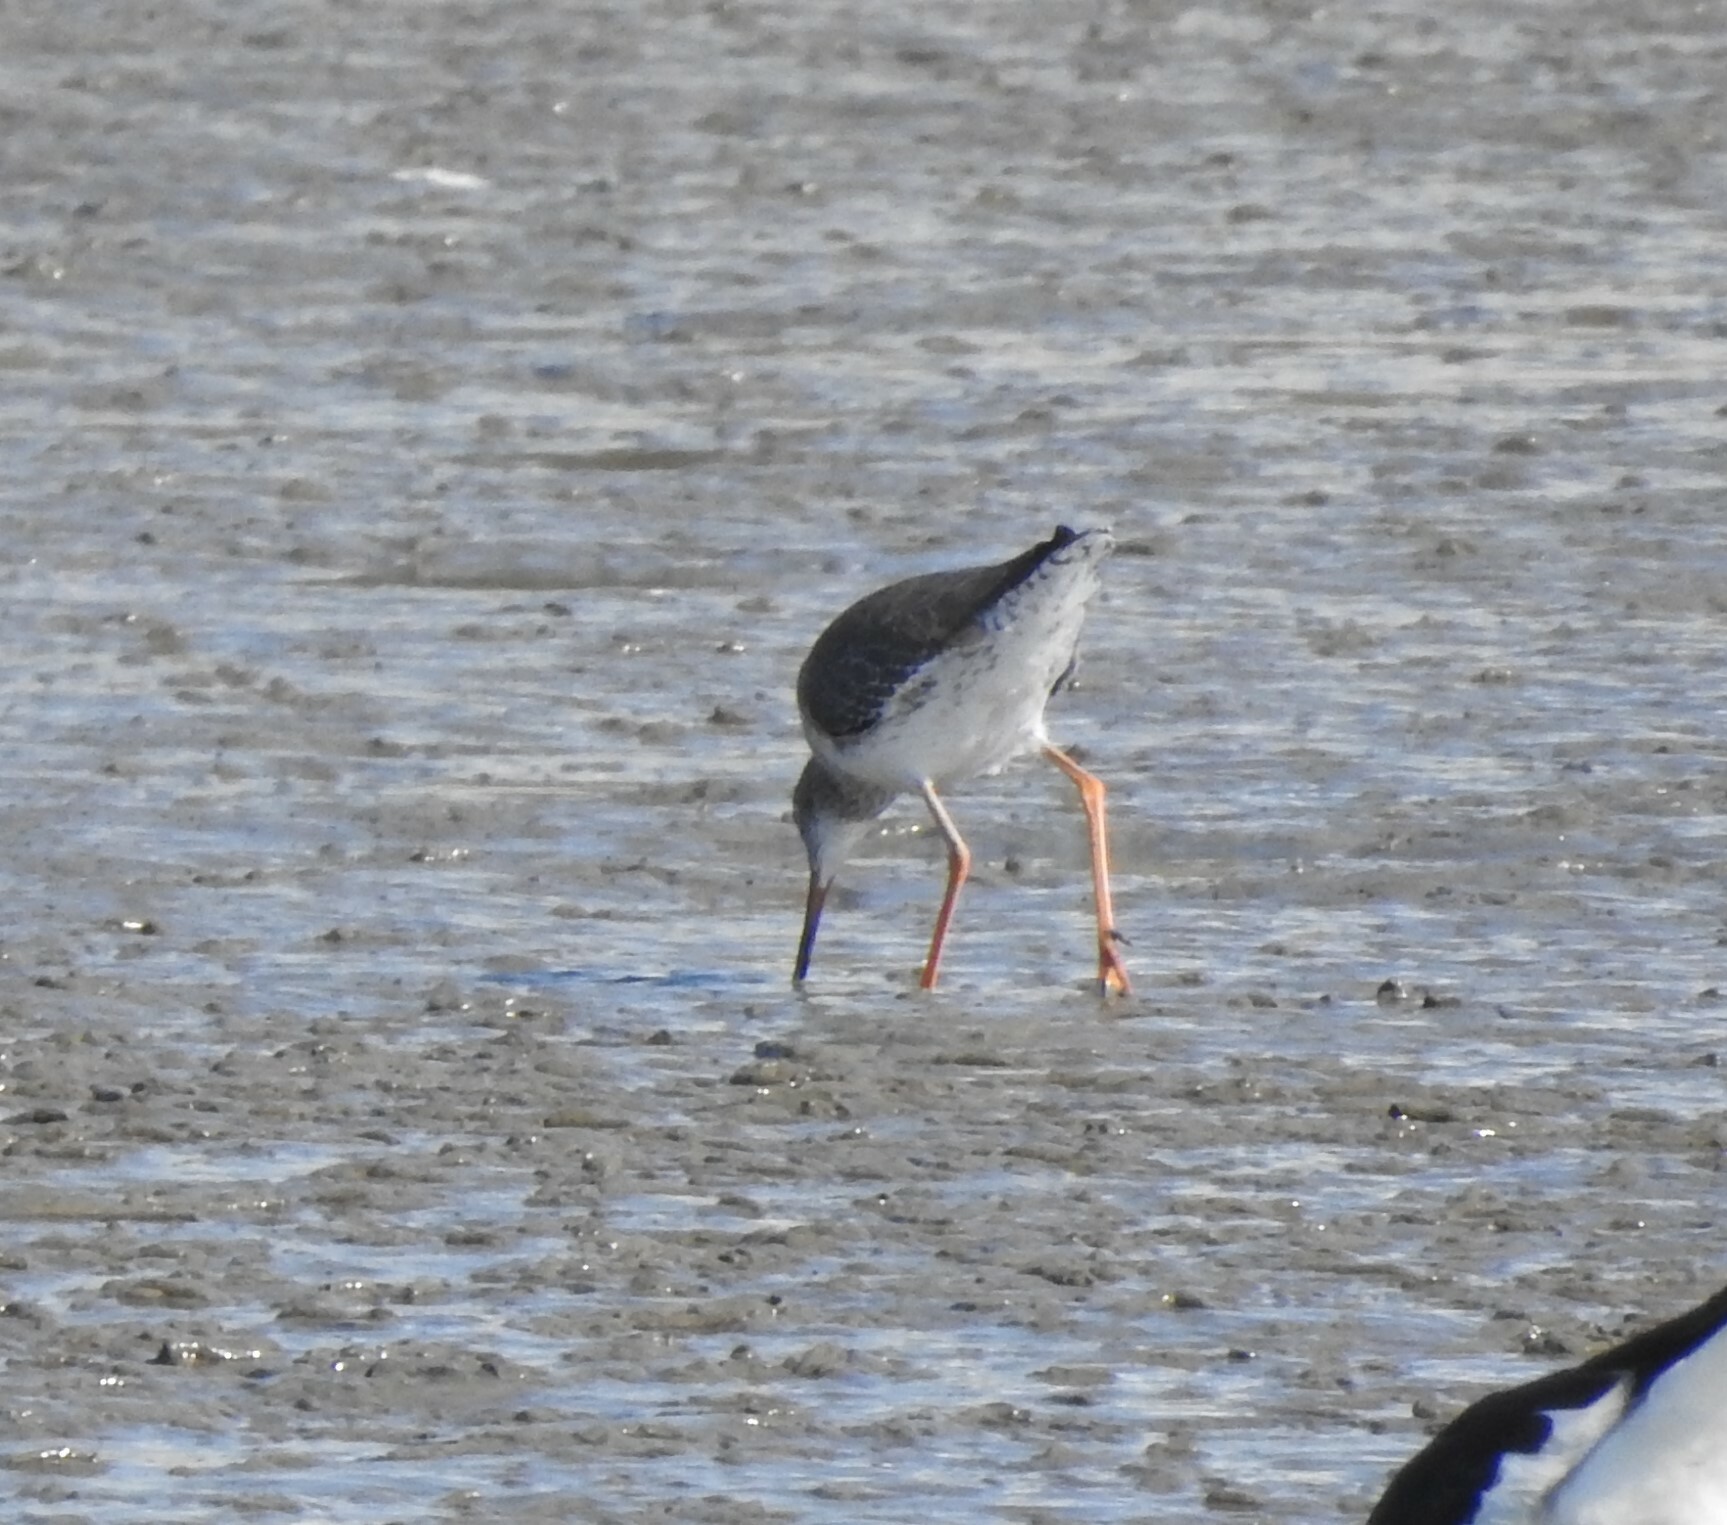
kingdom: Animalia
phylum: Chordata
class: Aves
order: Charadriiformes
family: Scolopacidae
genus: Tringa
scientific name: Tringa totanus
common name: Common redshank
